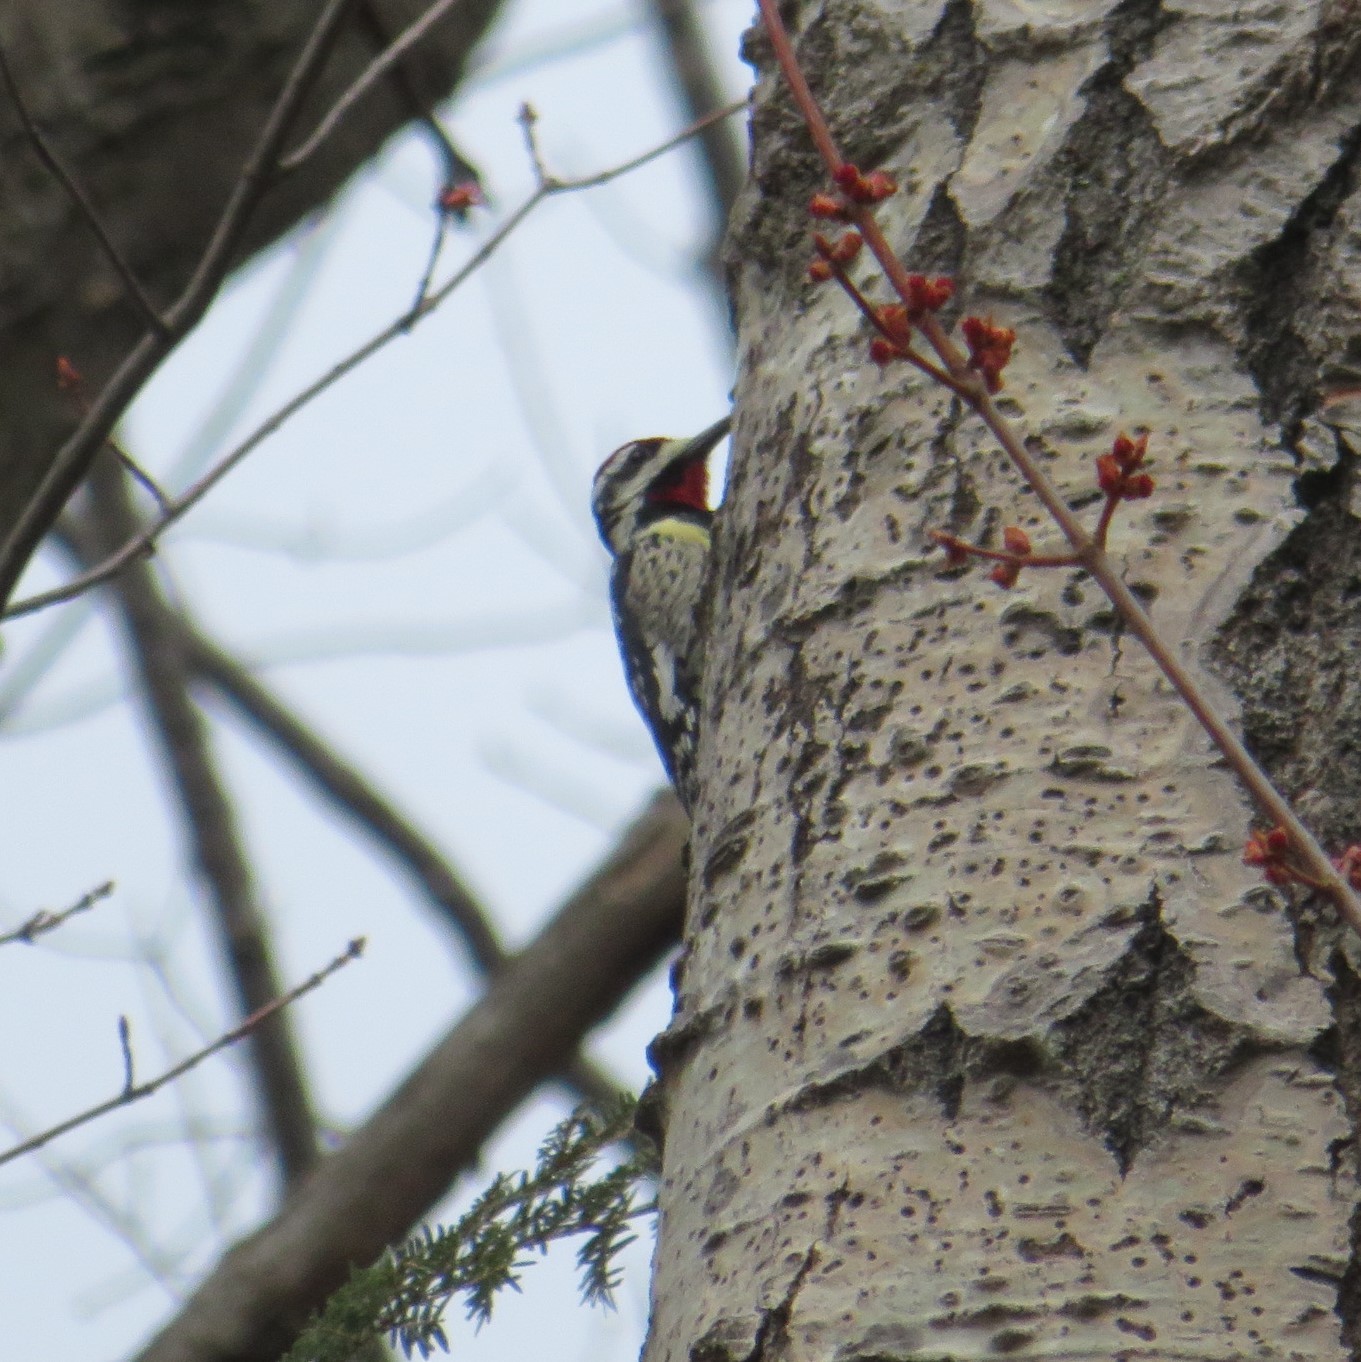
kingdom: Animalia
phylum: Chordata
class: Aves
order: Piciformes
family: Picidae
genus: Sphyrapicus
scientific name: Sphyrapicus varius
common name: Yellow-bellied sapsucker
